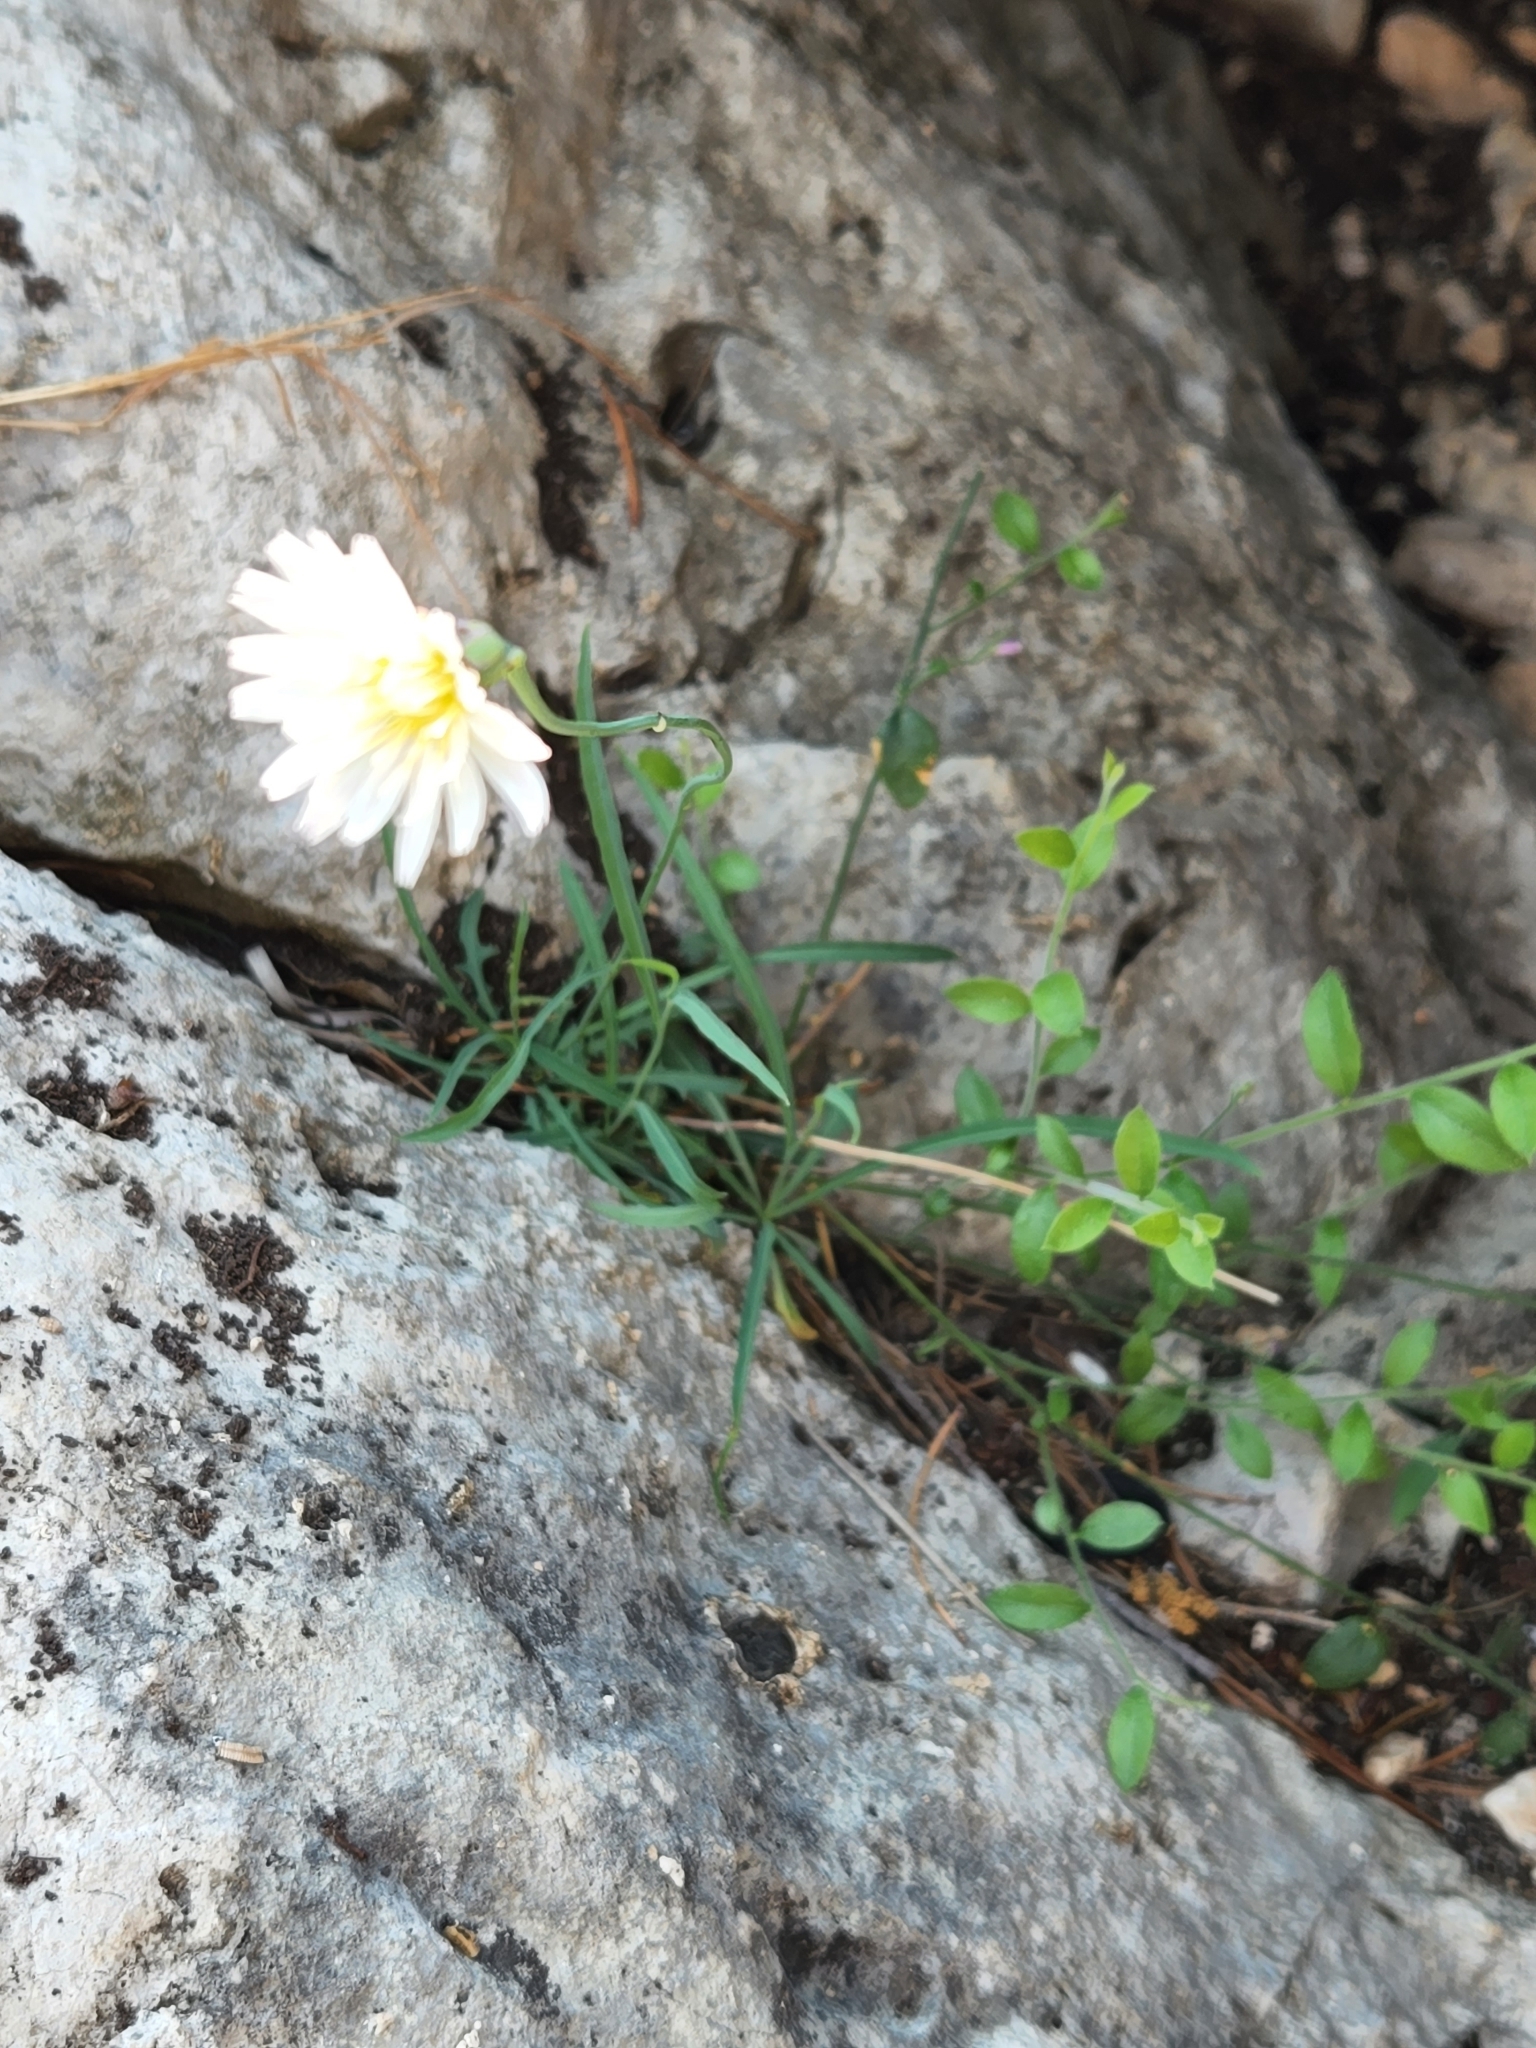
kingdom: Plantae
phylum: Tracheophyta
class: Magnoliopsida
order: Asterales
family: Asteraceae
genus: Pinaropappus
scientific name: Pinaropappus roseus
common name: Rock-lettuce
